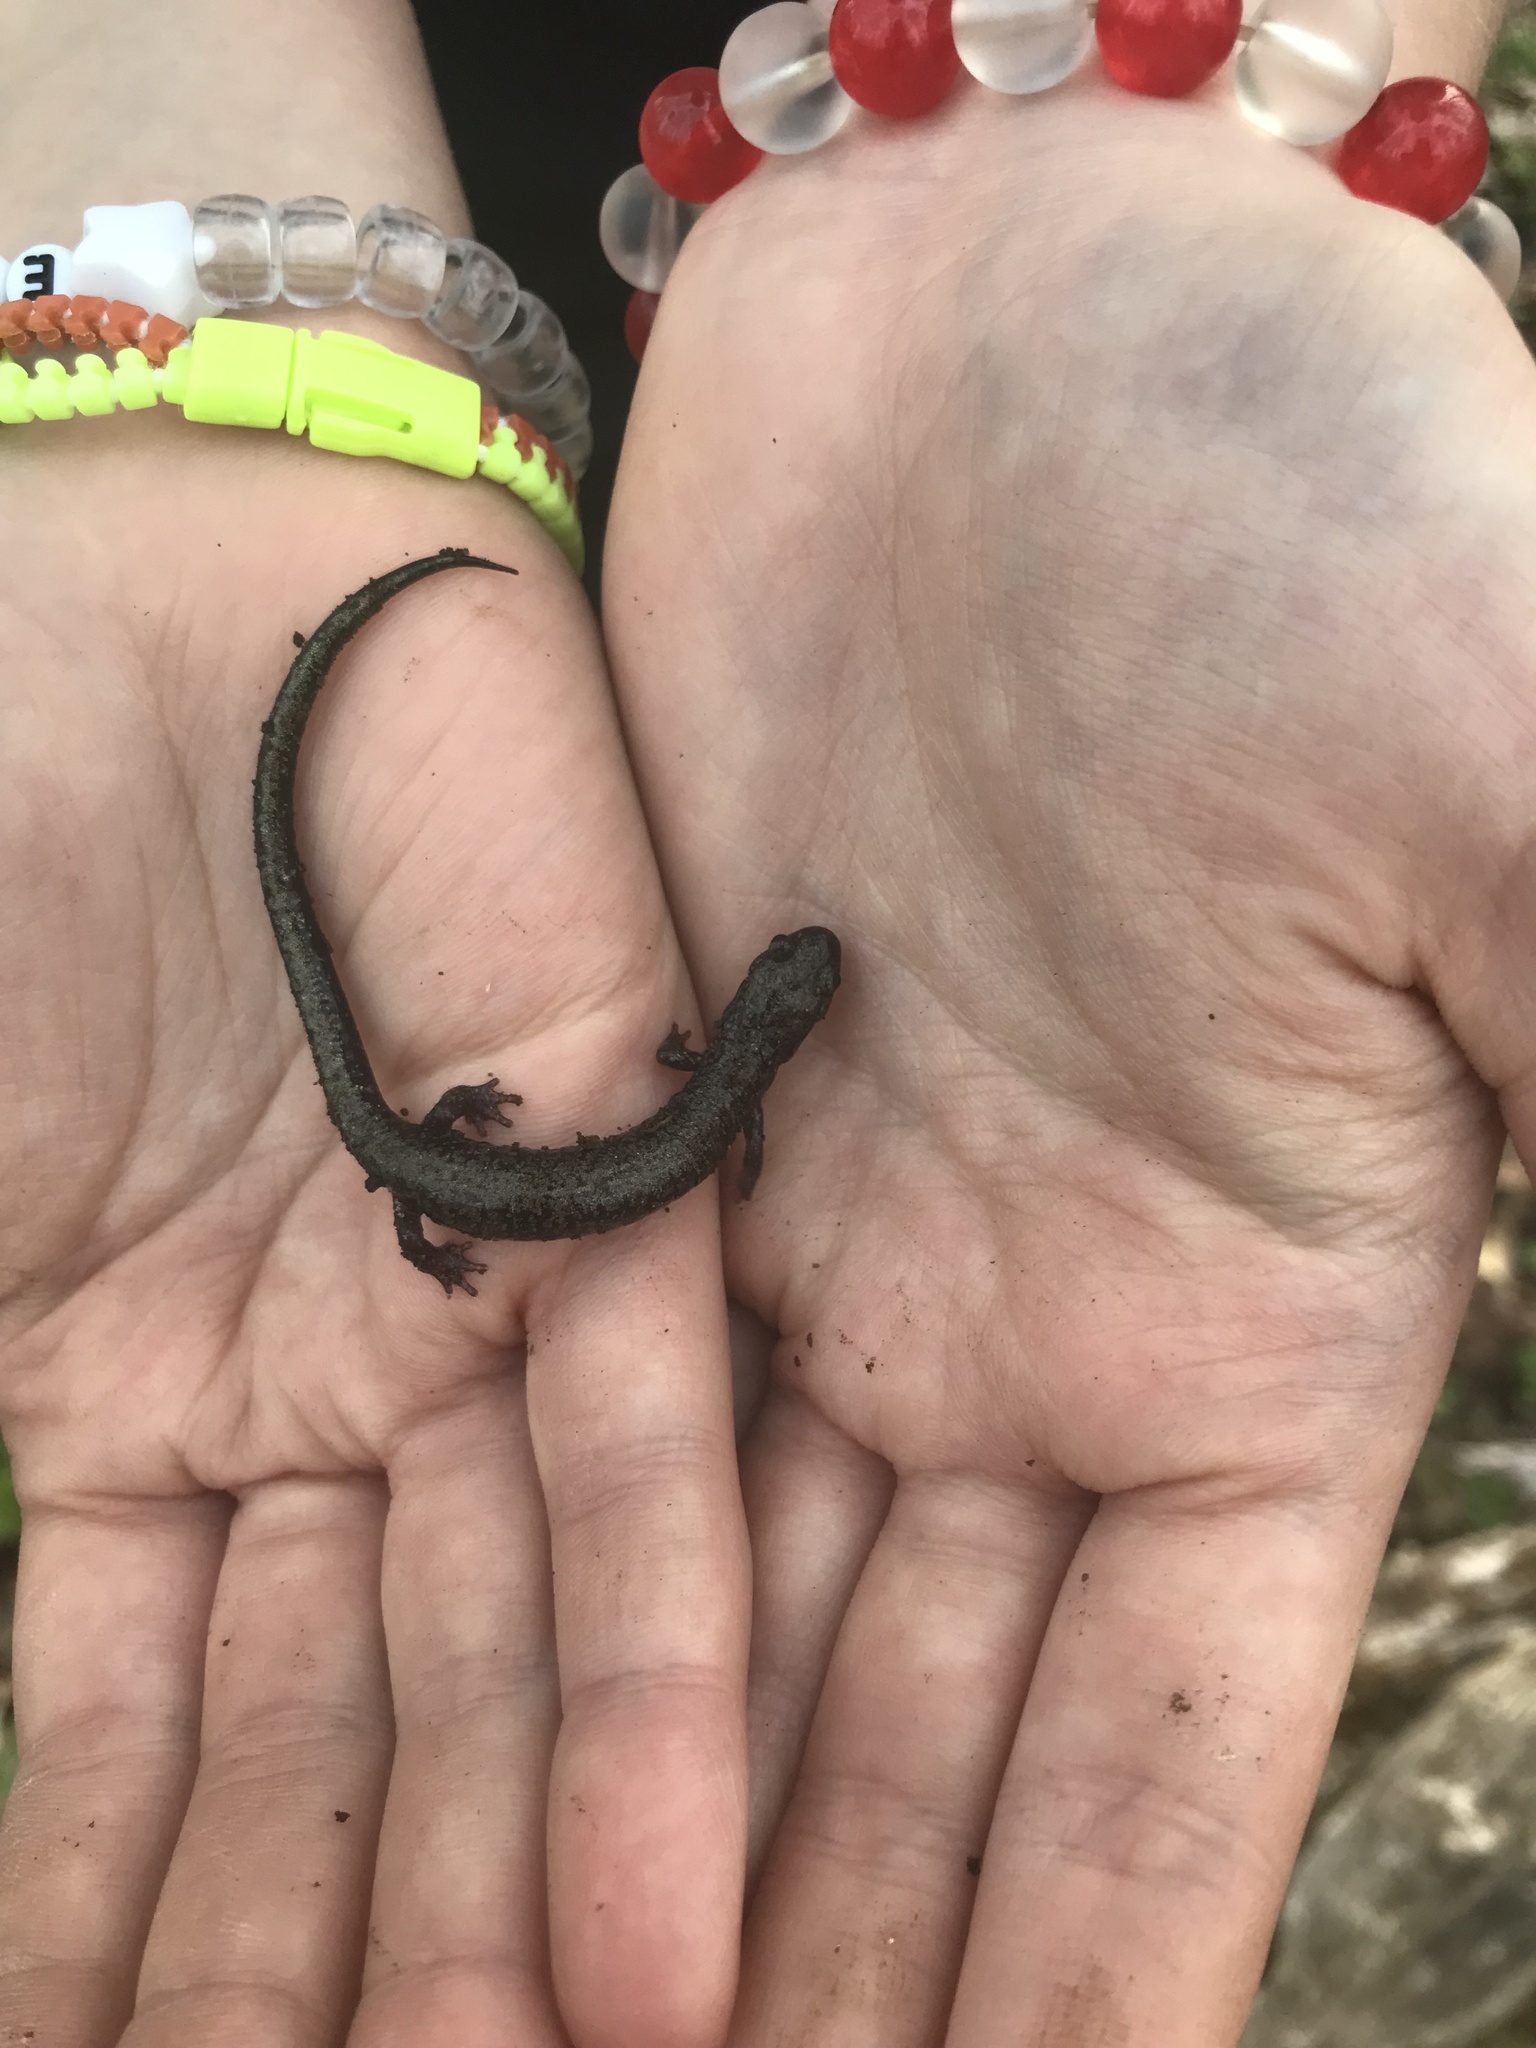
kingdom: Animalia
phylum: Chordata
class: Amphibia
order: Caudata
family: Plethodontidae
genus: Plethodon
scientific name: Plethodon hubrichti
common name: Peaks of otter salamander
